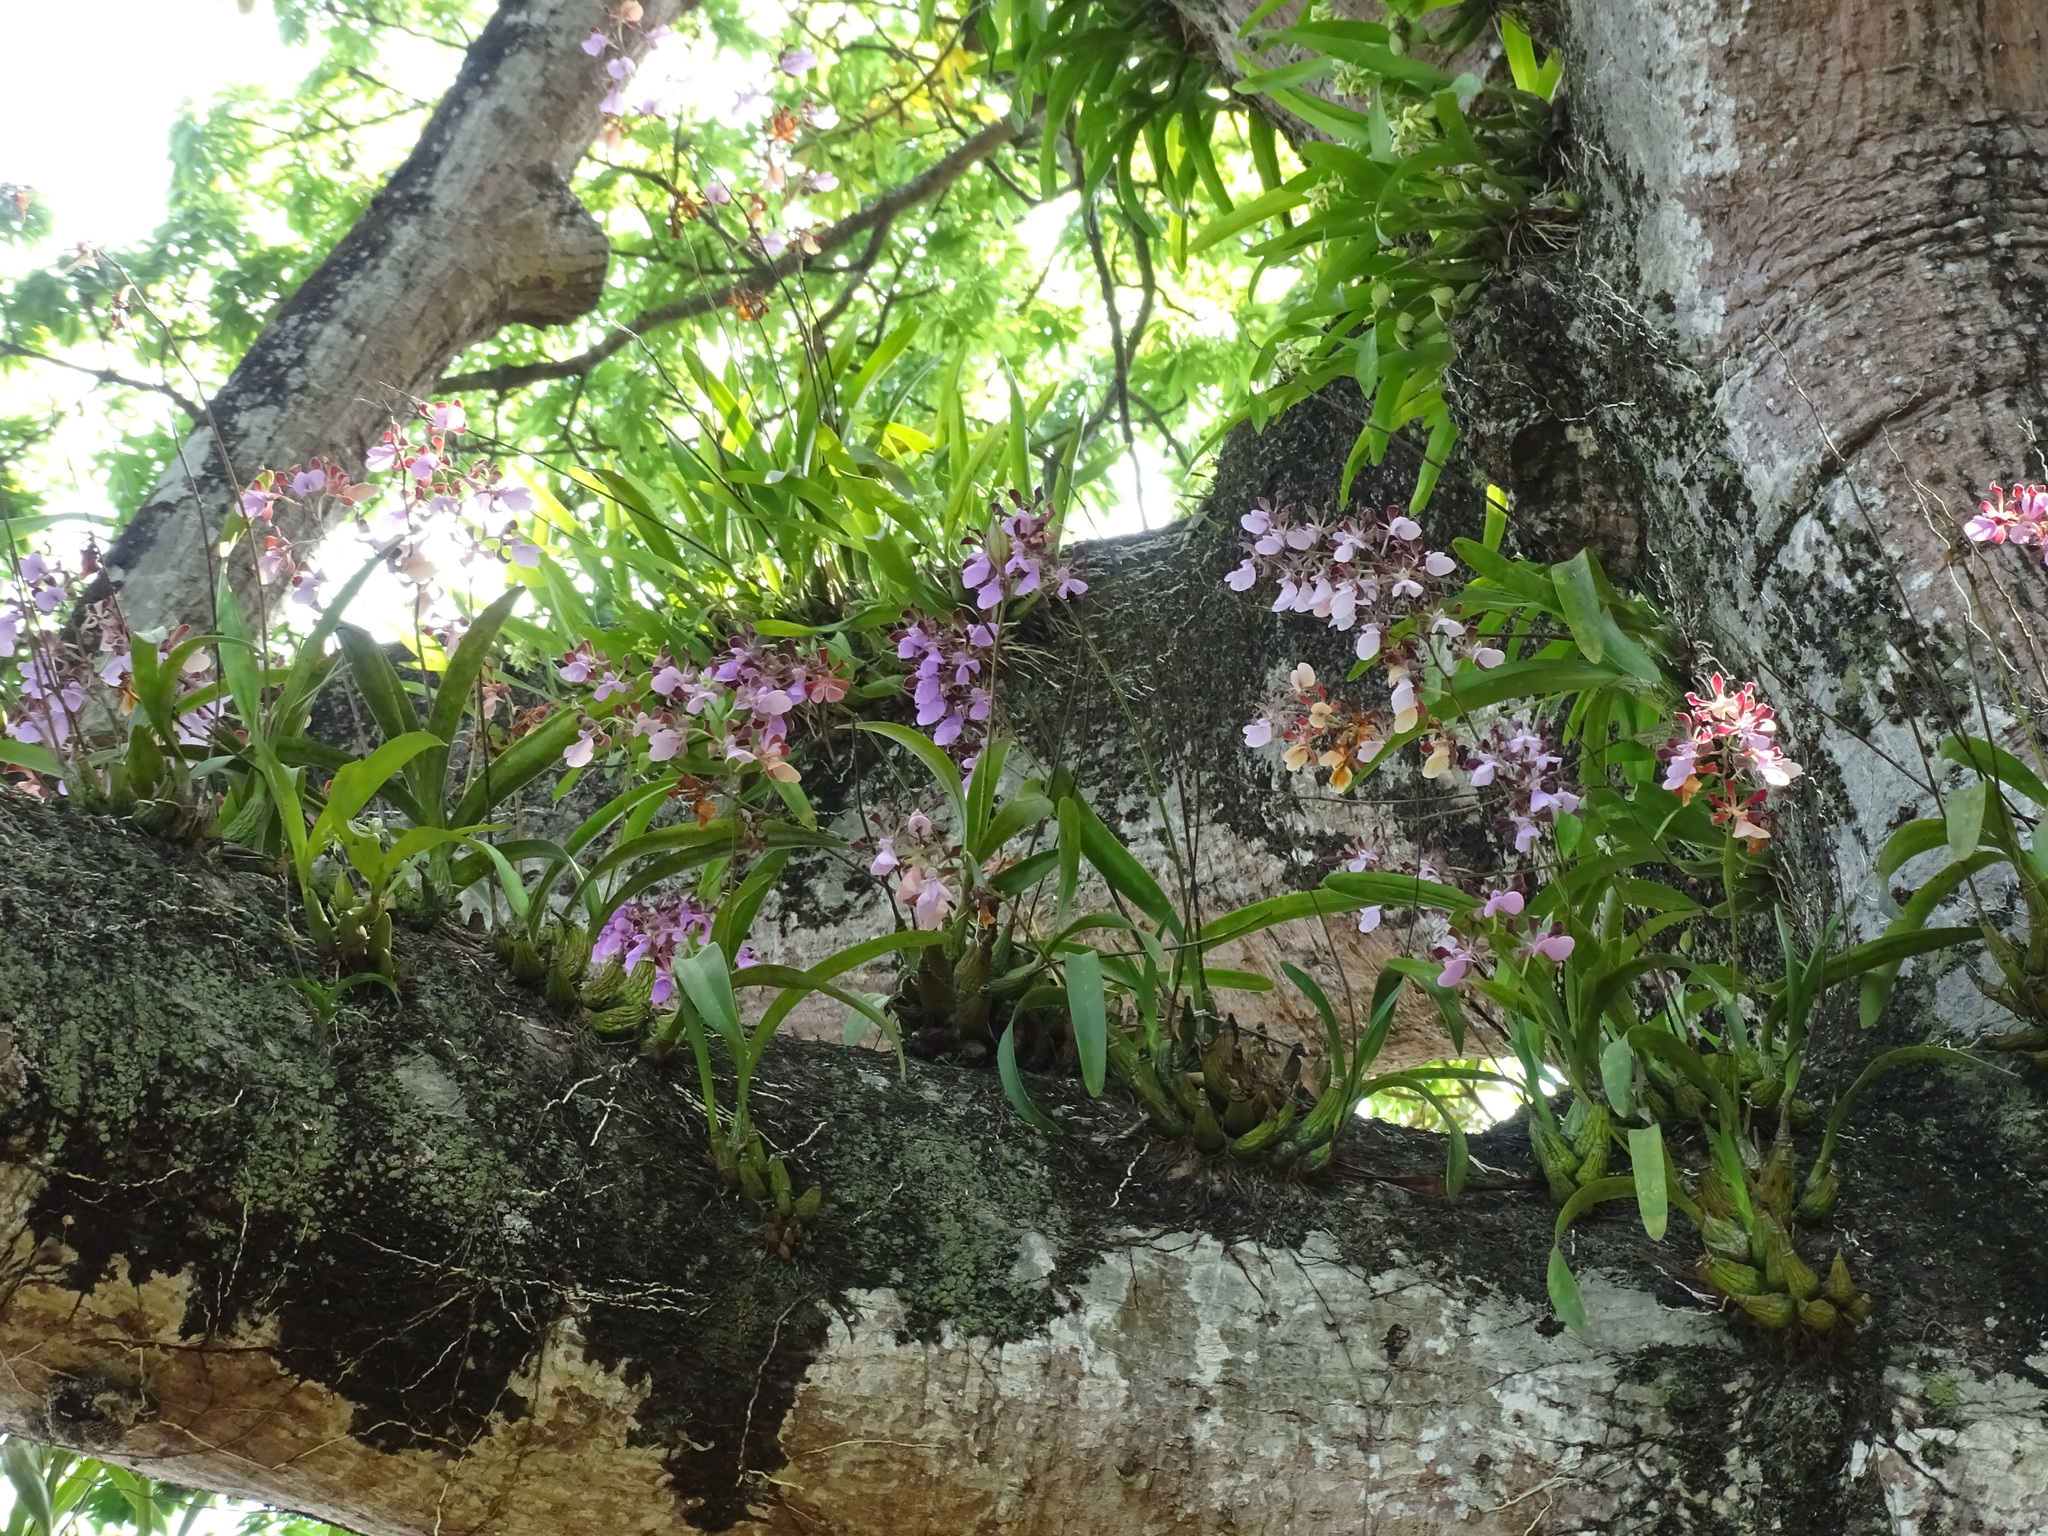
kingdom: Plantae
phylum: Tracheophyta
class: Liliopsida
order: Asparagales
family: Orchidaceae
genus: Encyclia
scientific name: Encyclia cordigera
